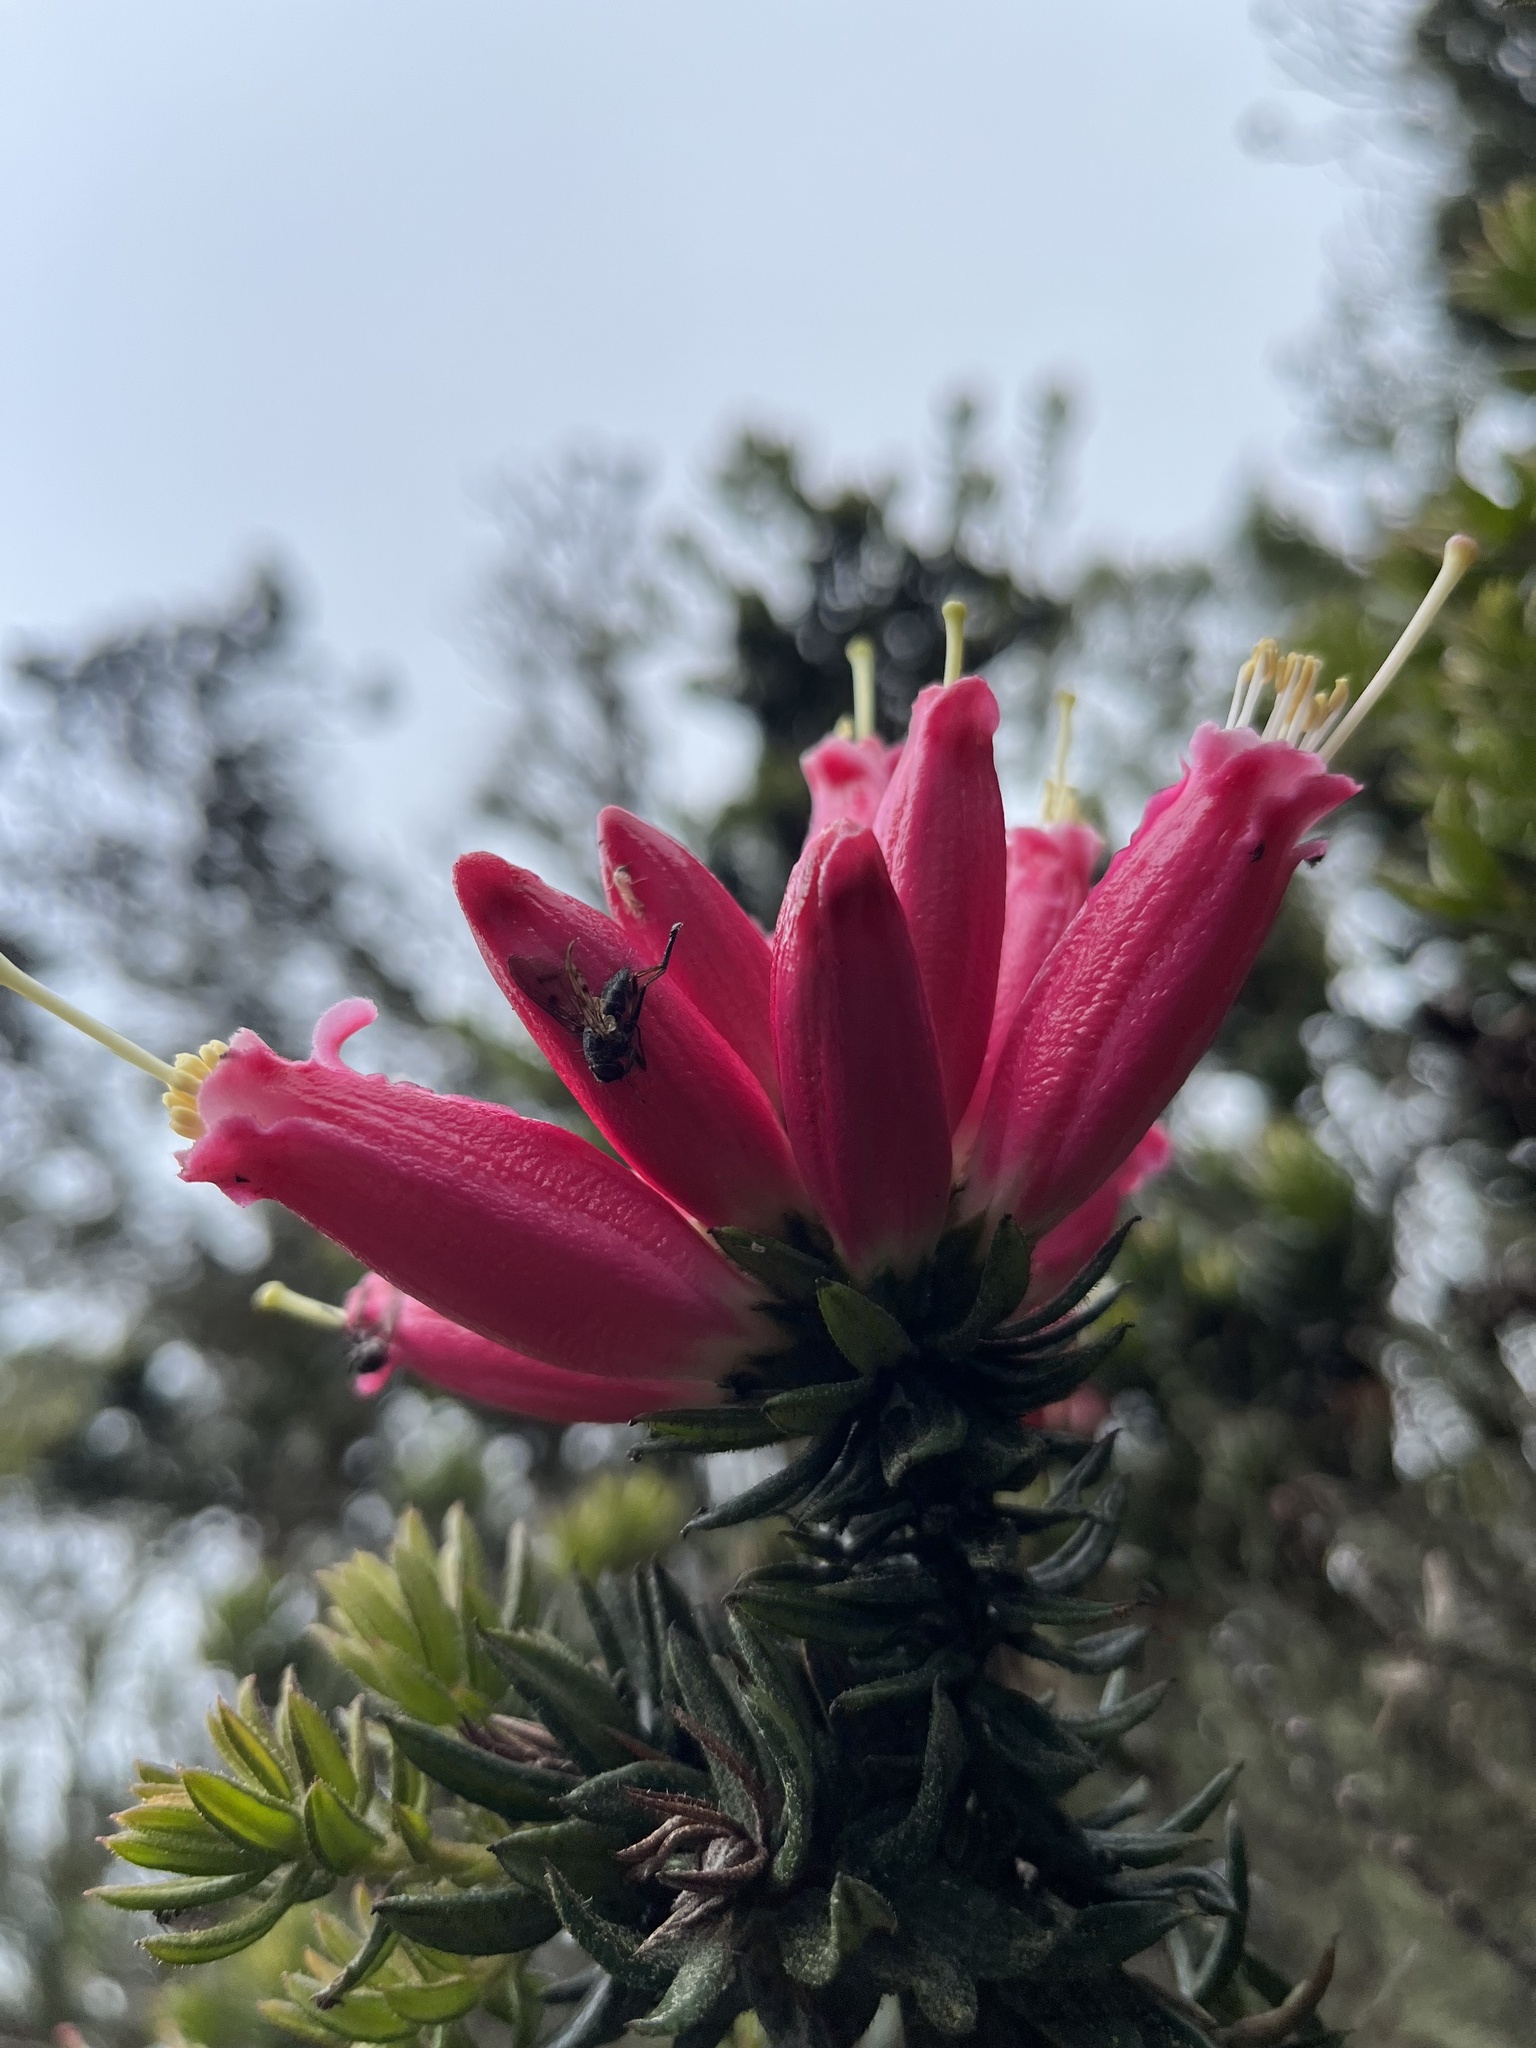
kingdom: Plantae
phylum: Tracheophyta
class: Magnoliopsida
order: Ericales
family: Ericaceae
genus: Bejaria
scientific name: Bejaria resinosa
